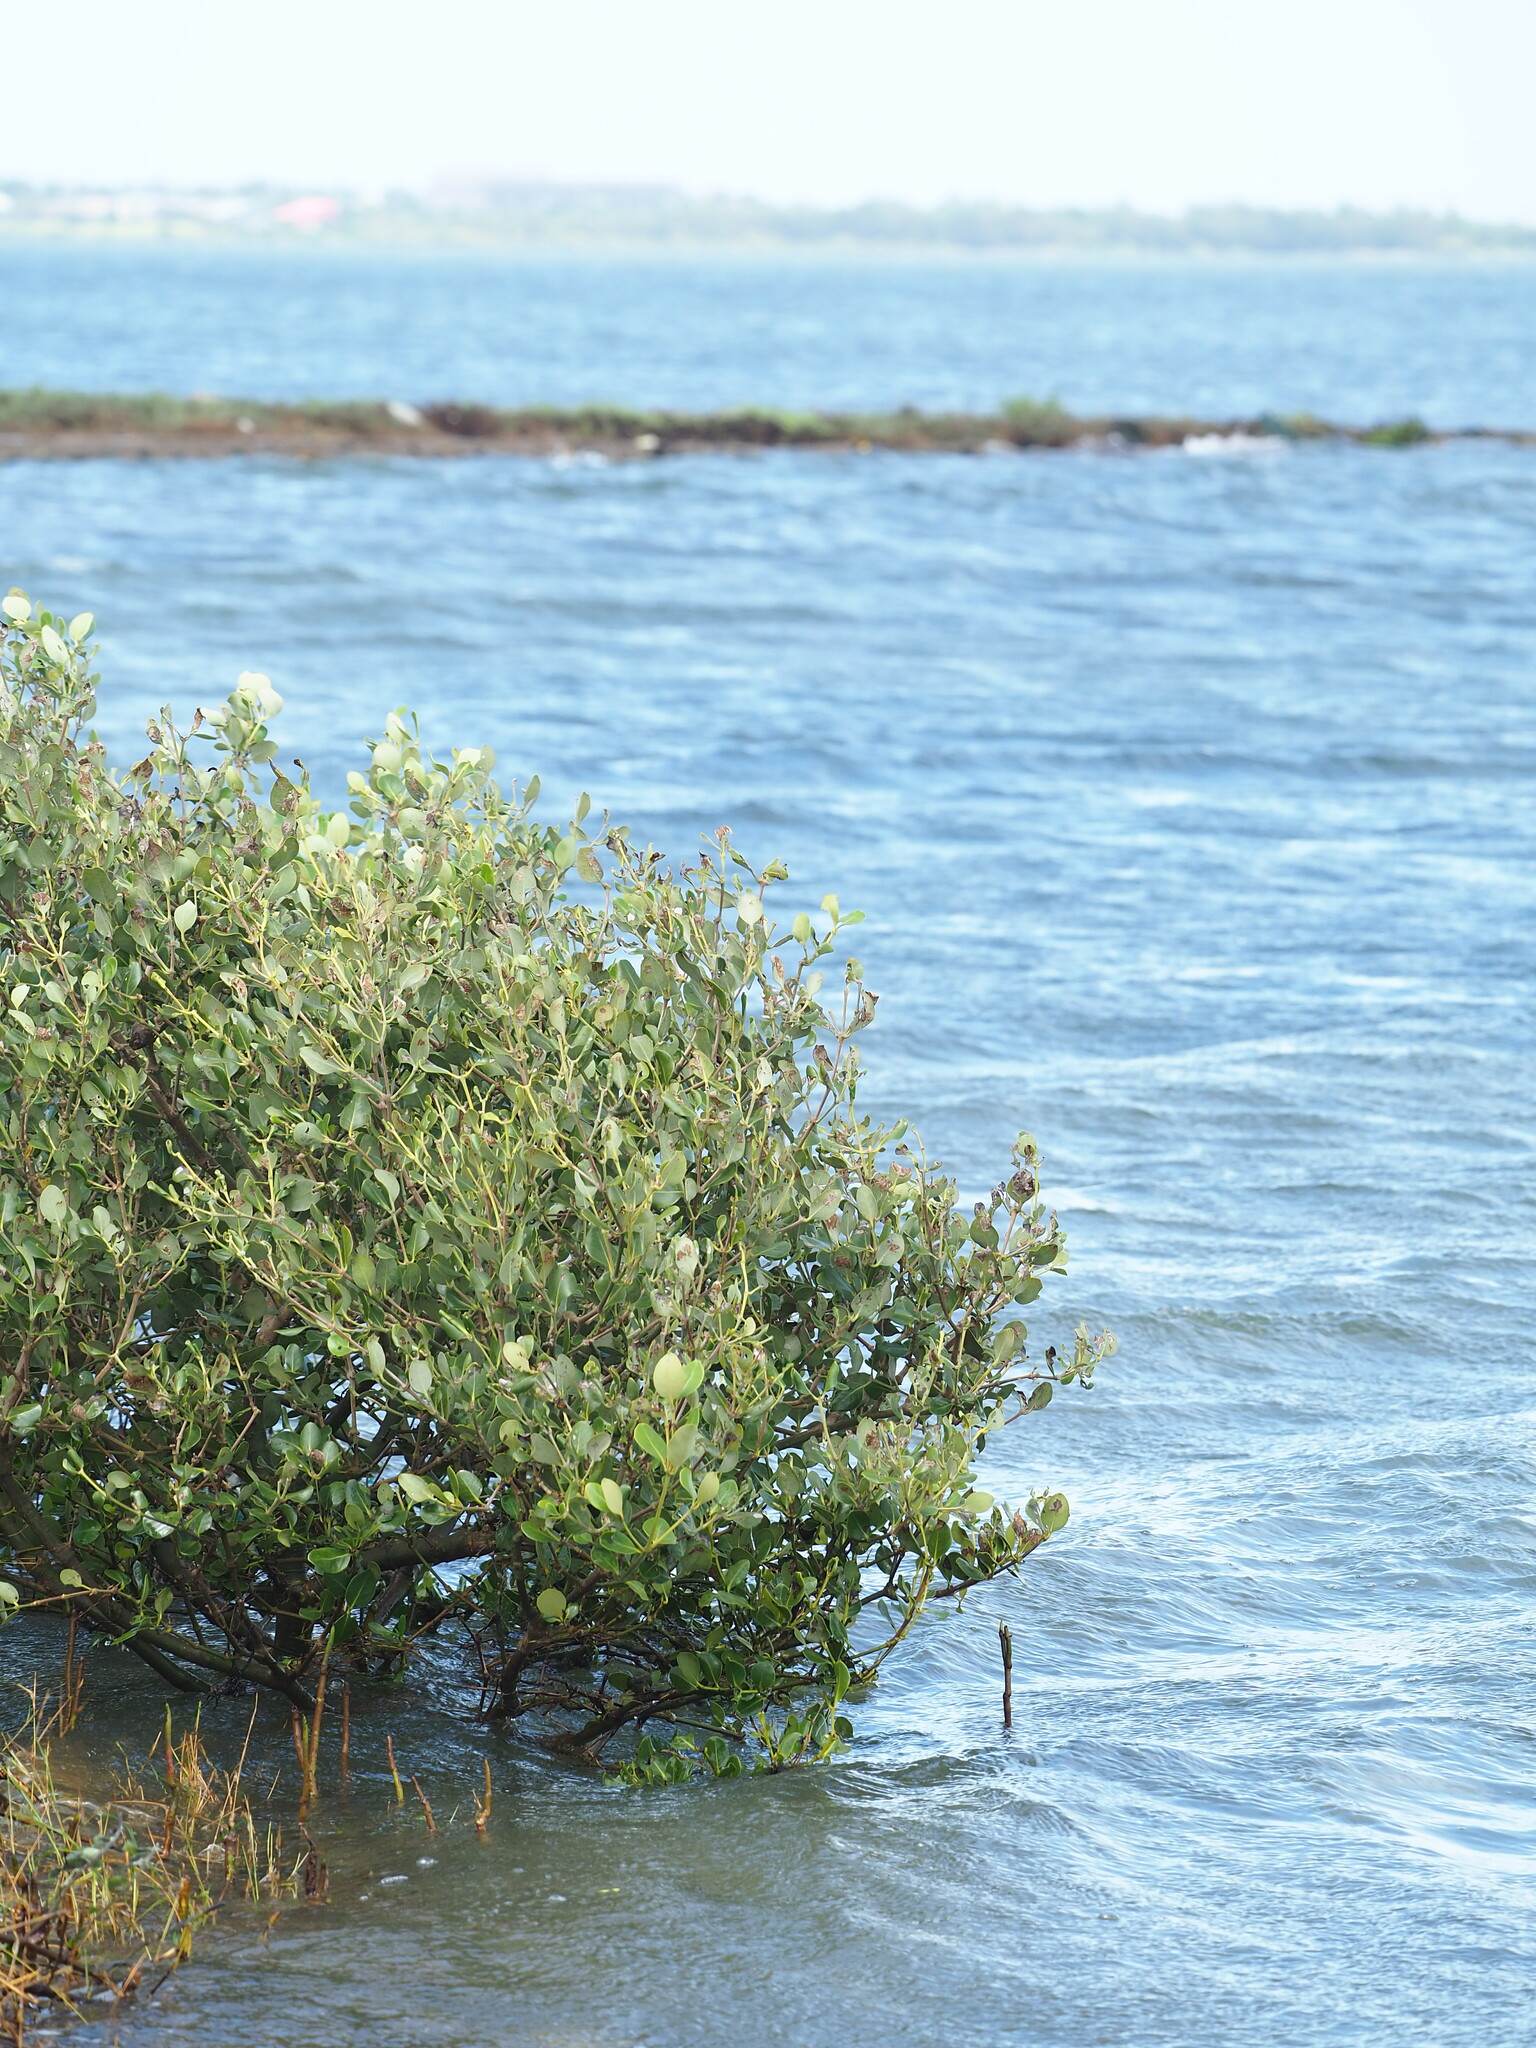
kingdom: Plantae
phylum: Tracheophyta
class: Magnoliopsida
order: Lamiales
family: Acanthaceae
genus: Avicennia
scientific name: Avicennia marina
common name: Gray mangrove
